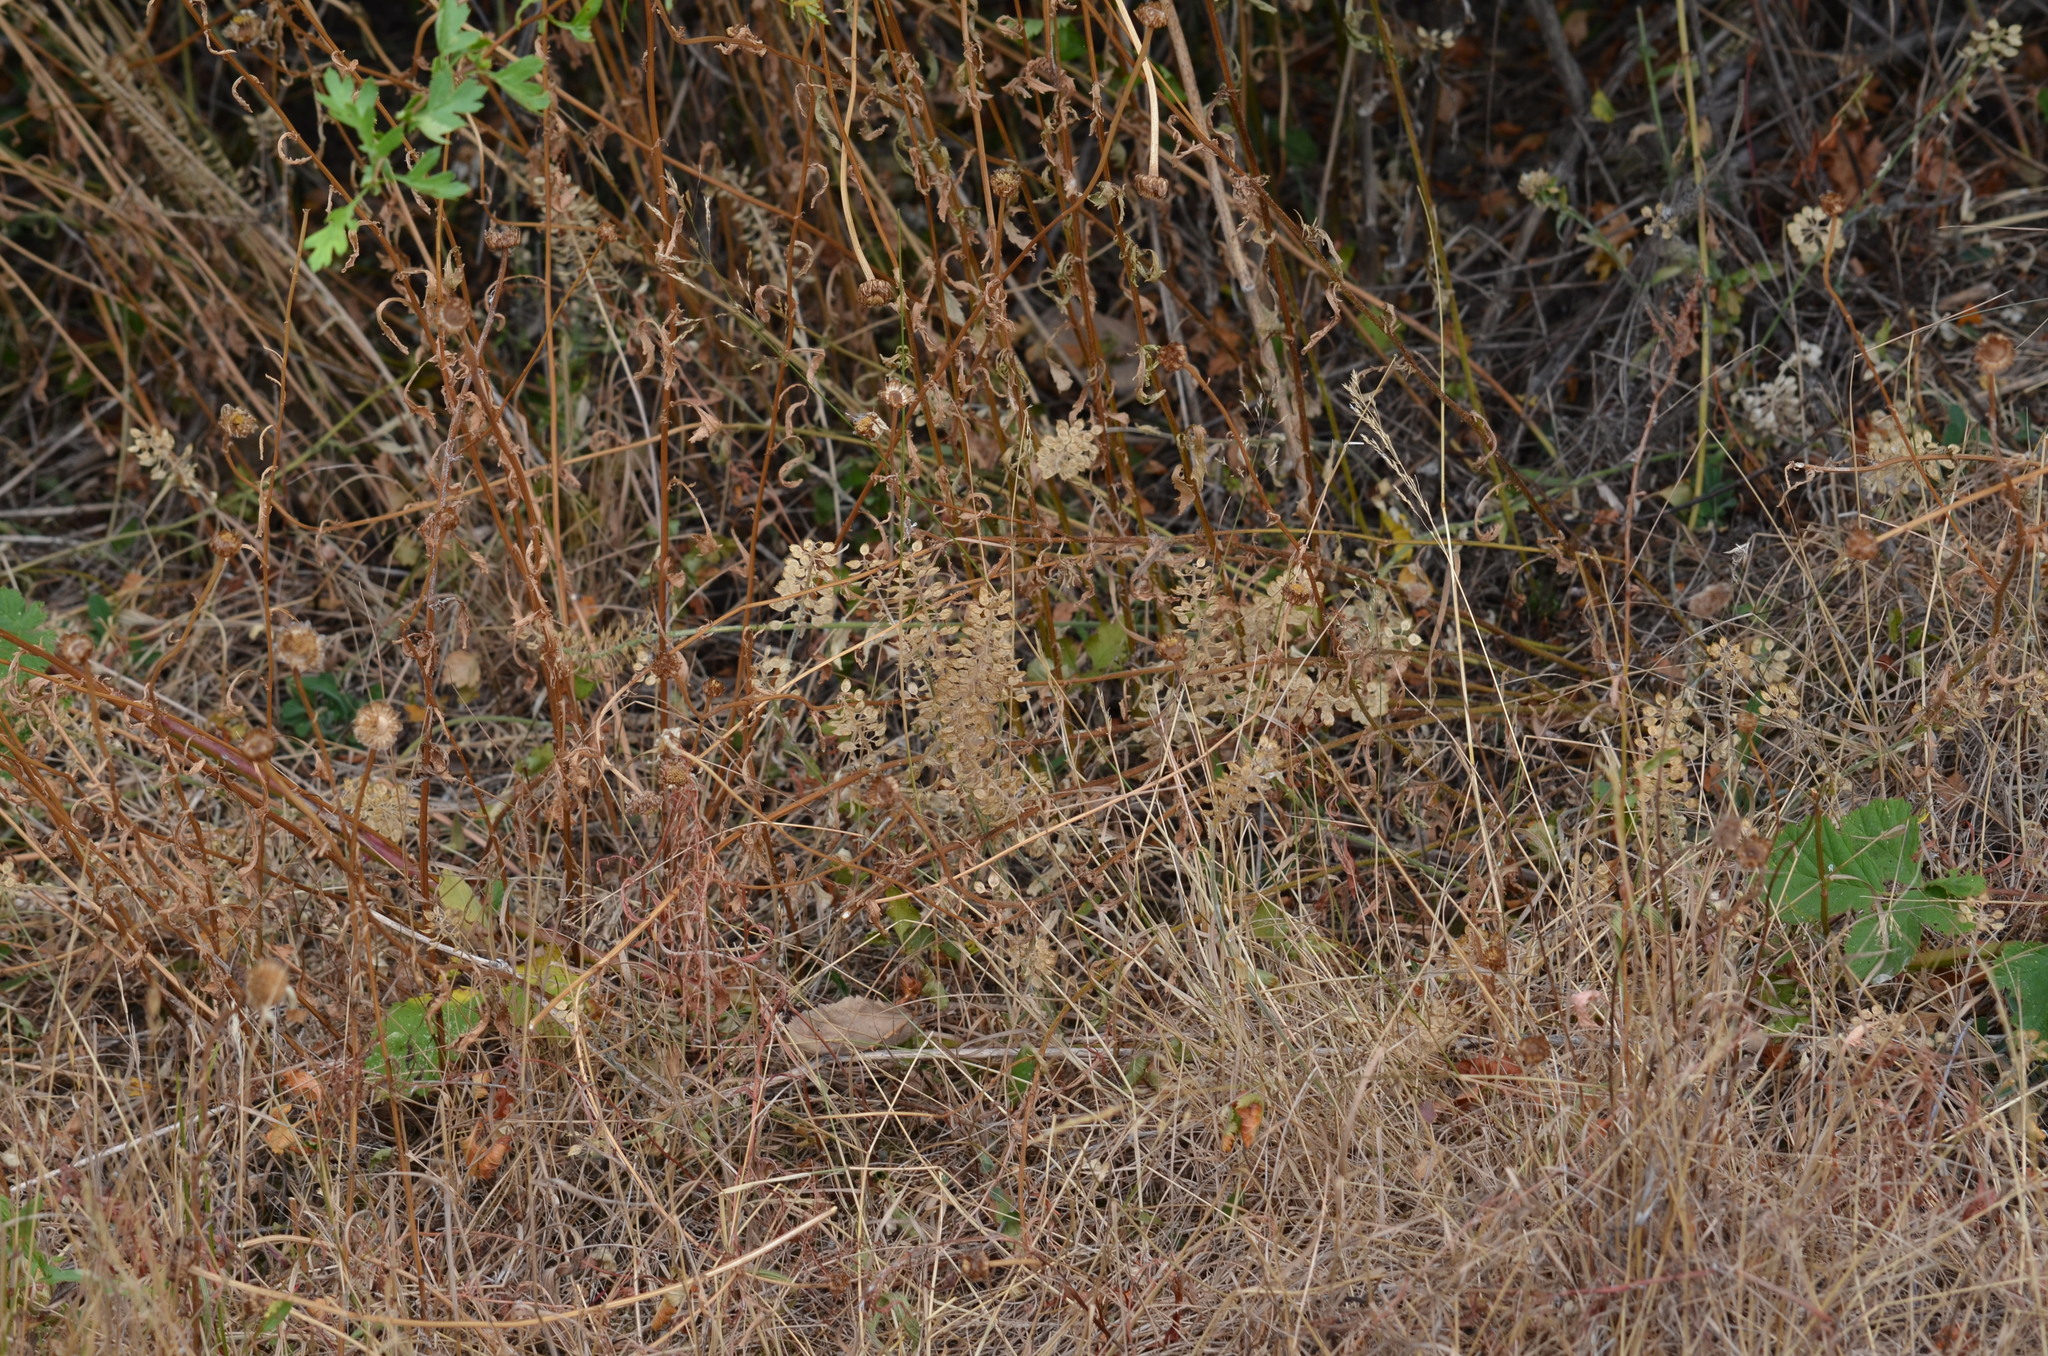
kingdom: Plantae
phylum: Tracheophyta
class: Magnoliopsida
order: Brassicales
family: Brassicaceae
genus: Lepidium
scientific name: Lepidium campestre
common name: Field pepperwort
